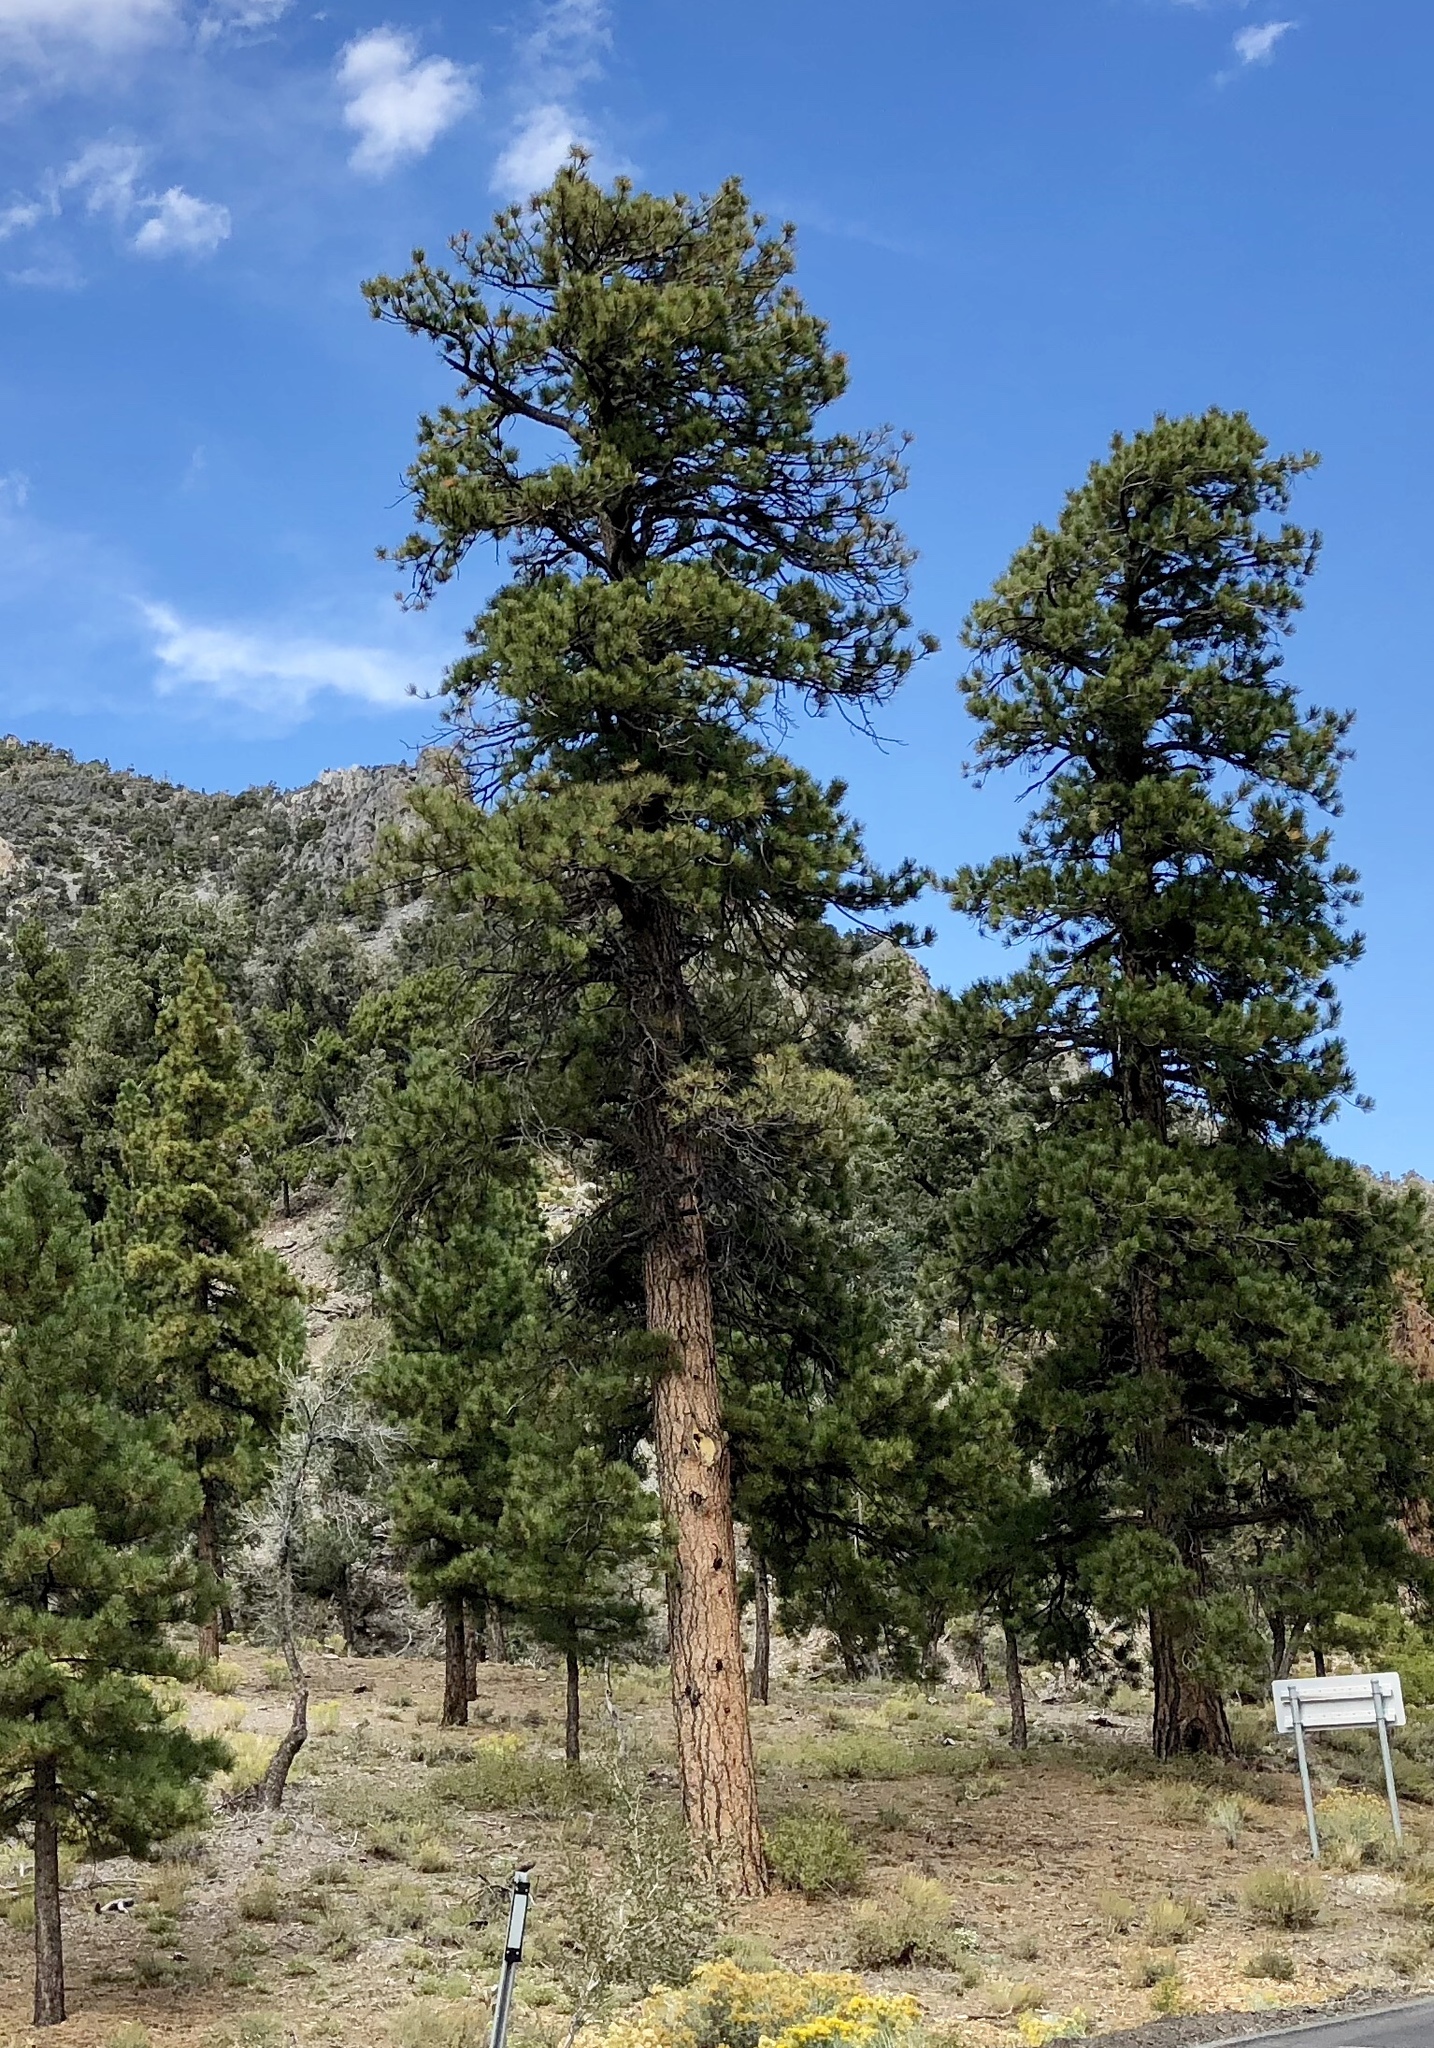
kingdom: Plantae
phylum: Tracheophyta
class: Pinopsida
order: Pinales
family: Pinaceae
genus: Pinus
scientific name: Pinus ponderosa
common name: Western yellow-pine
